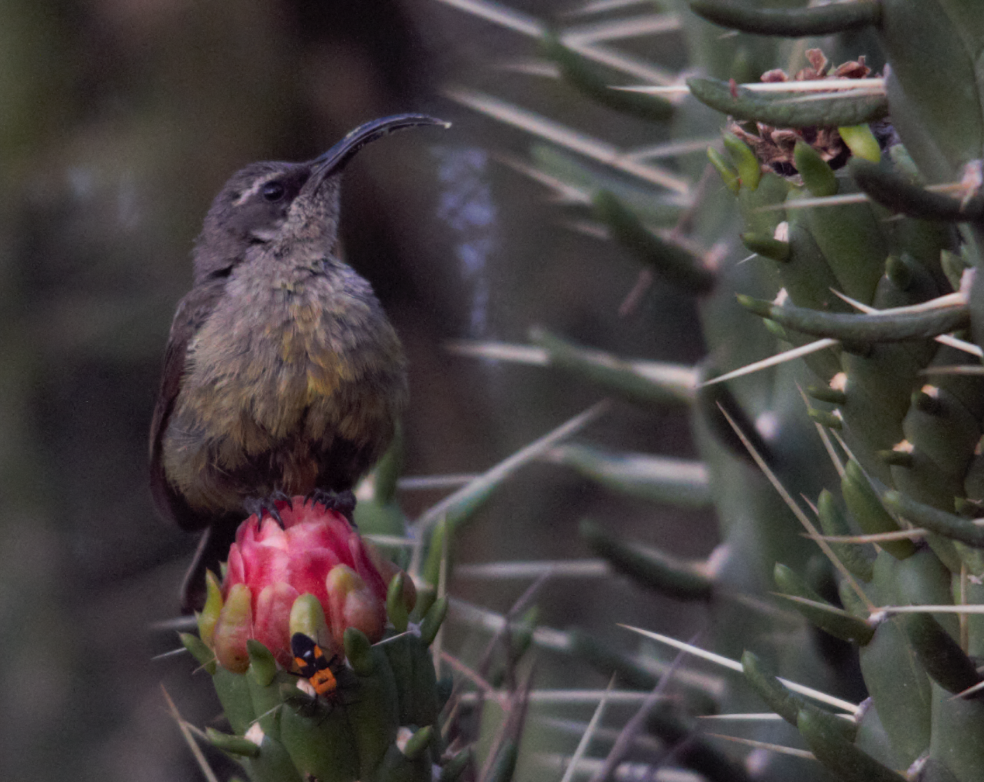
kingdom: Animalia
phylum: Chordata
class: Aves
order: Passeriformes
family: Nectariniidae
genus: Chalcomitra
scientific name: Chalcomitra amethystina
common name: Amethyst sunbird
